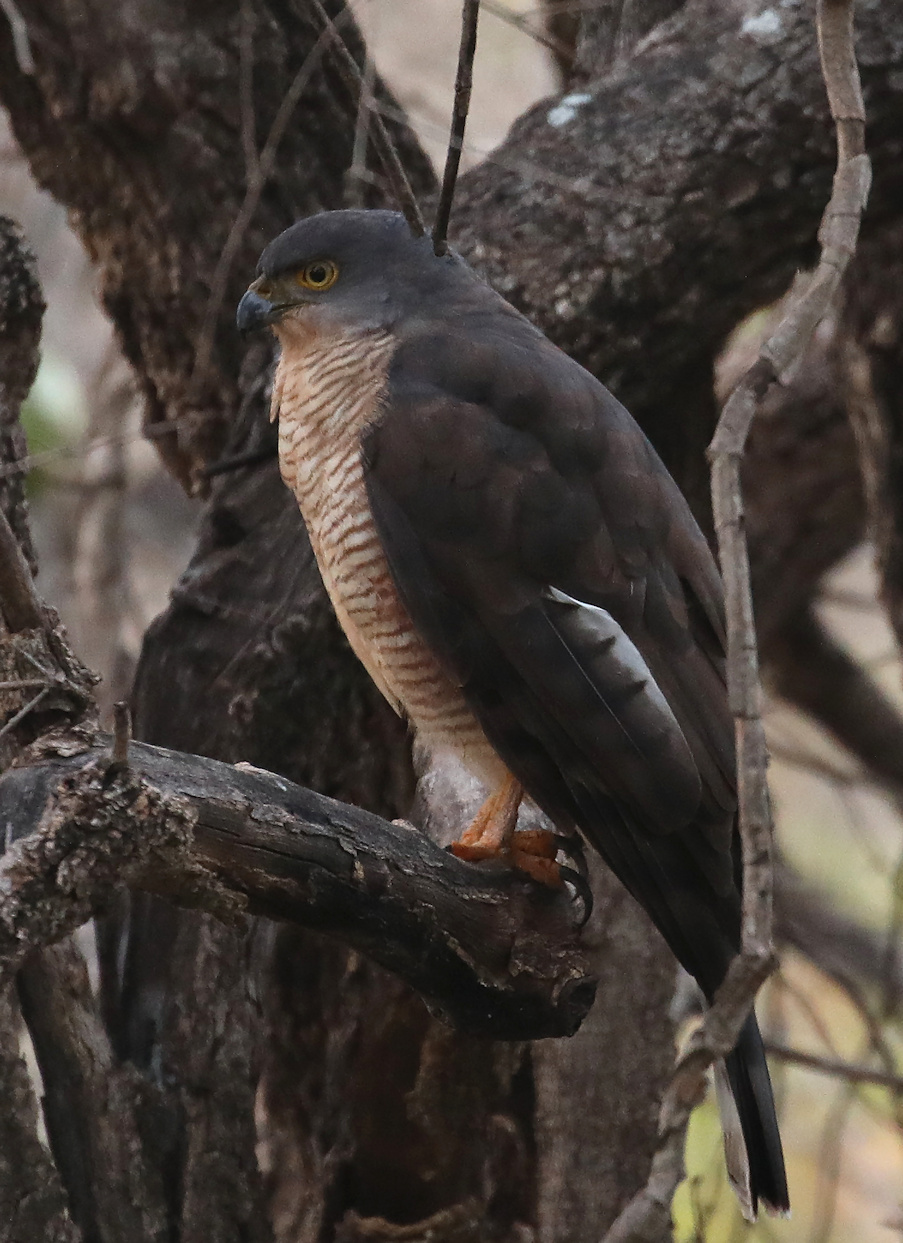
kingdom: Animalia
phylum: Chordata
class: Aves
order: Accipitriformes
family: Accipitridae
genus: Accipiter
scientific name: Accipiter tachiro
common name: African goshawk
